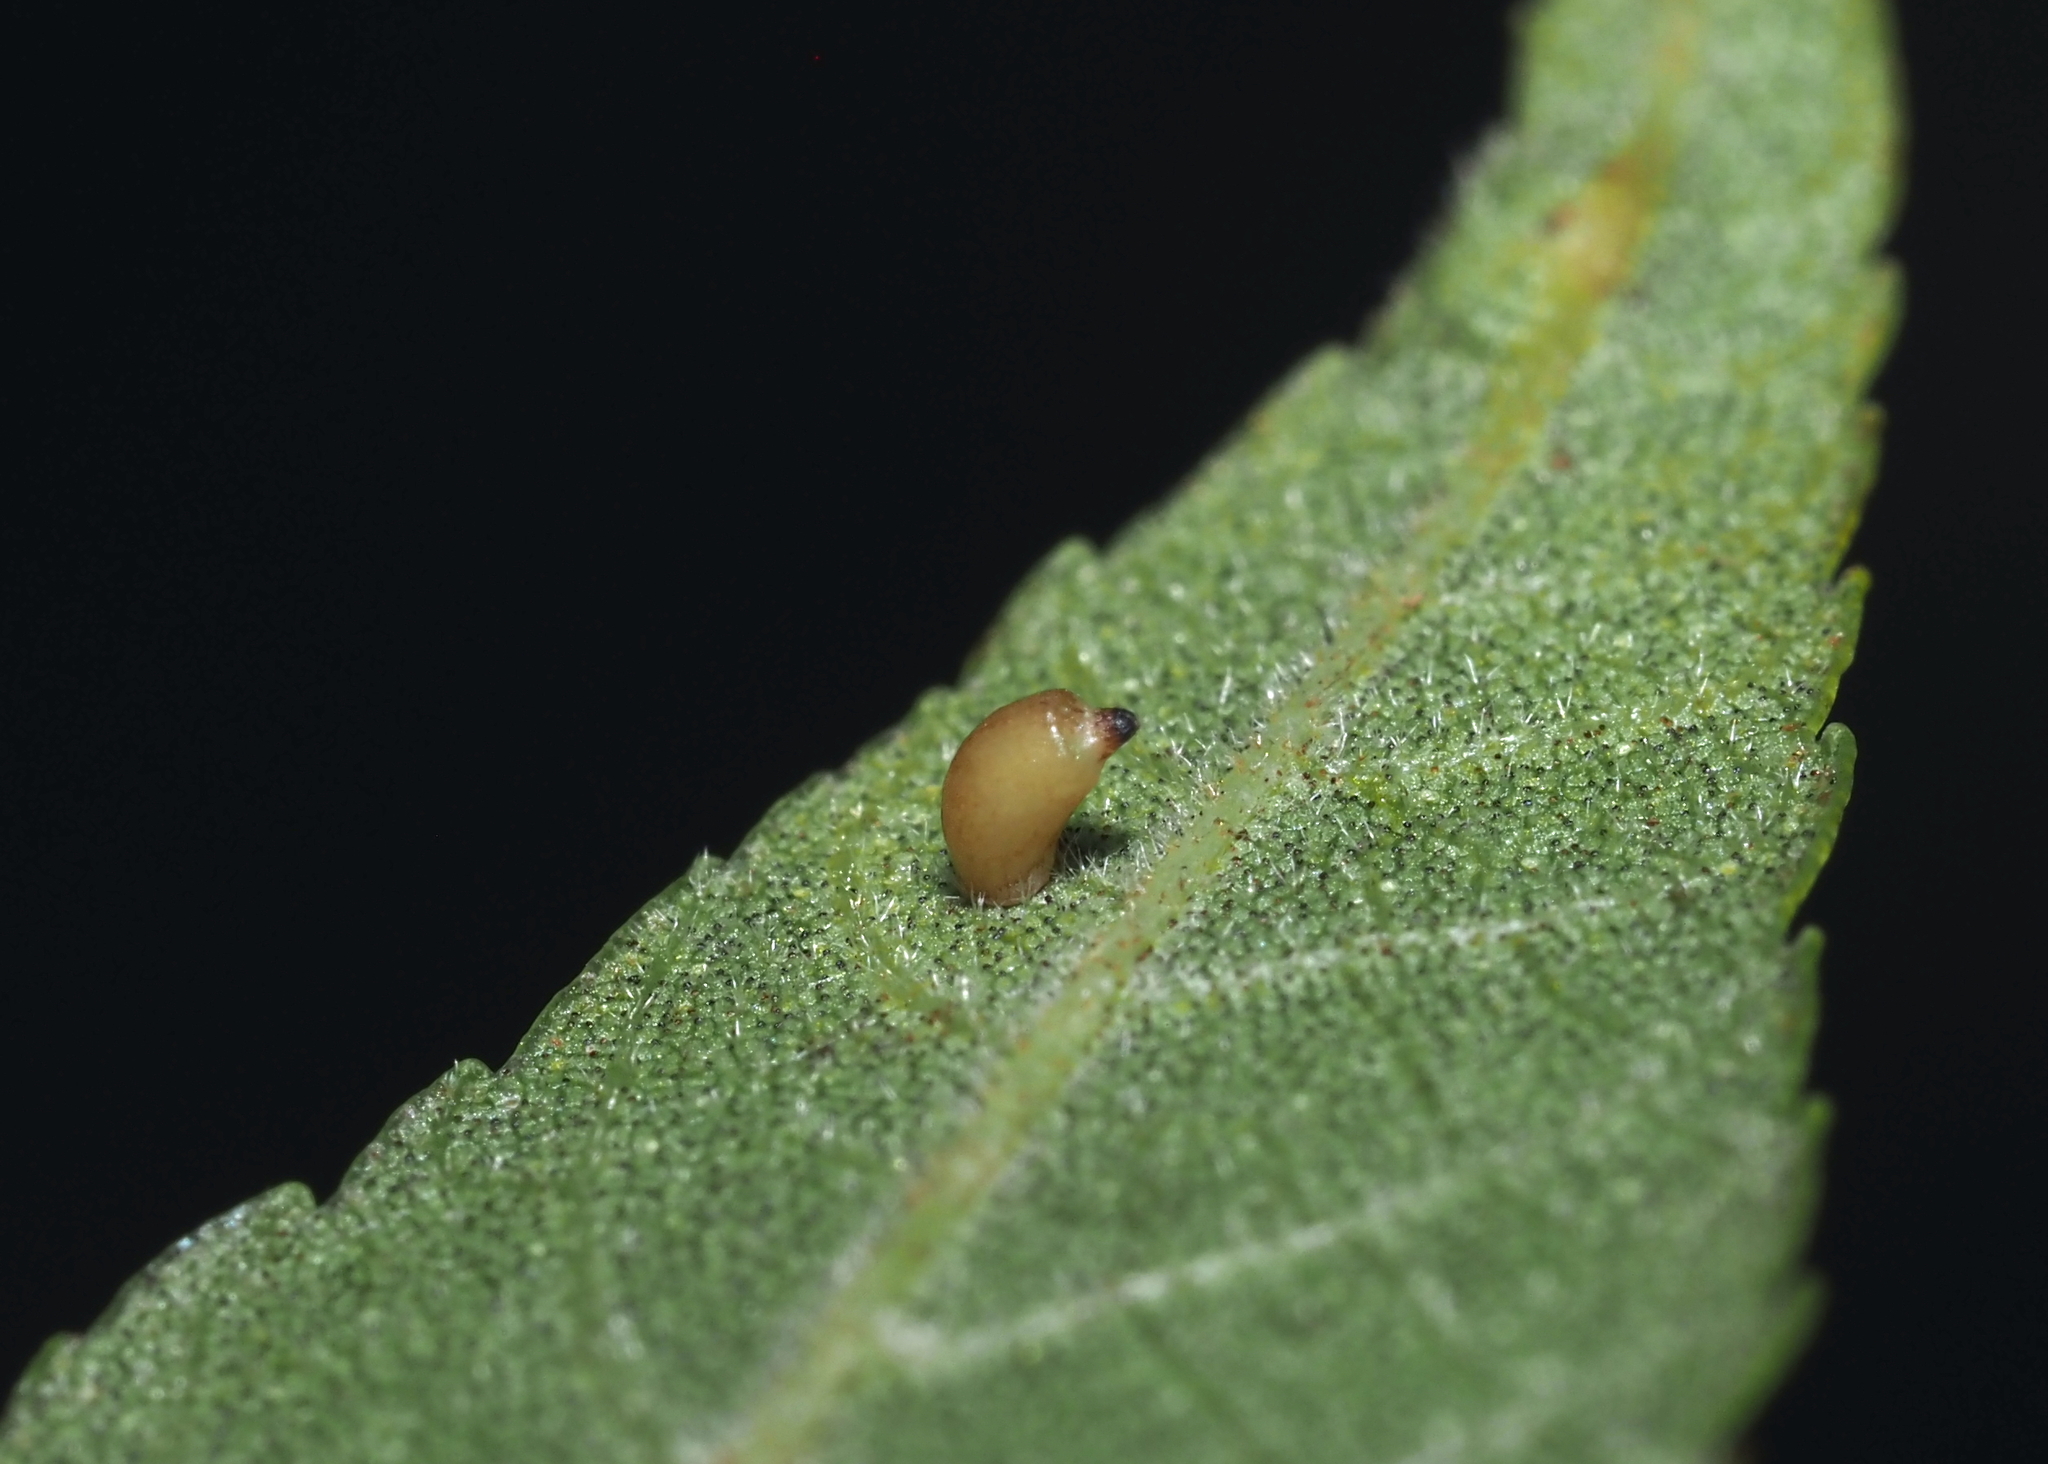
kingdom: Animalia
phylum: Arthropoda
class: Insecta
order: Diptera
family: Cecidomyiidae
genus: Caryomyia
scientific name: Caryomyia urnula
